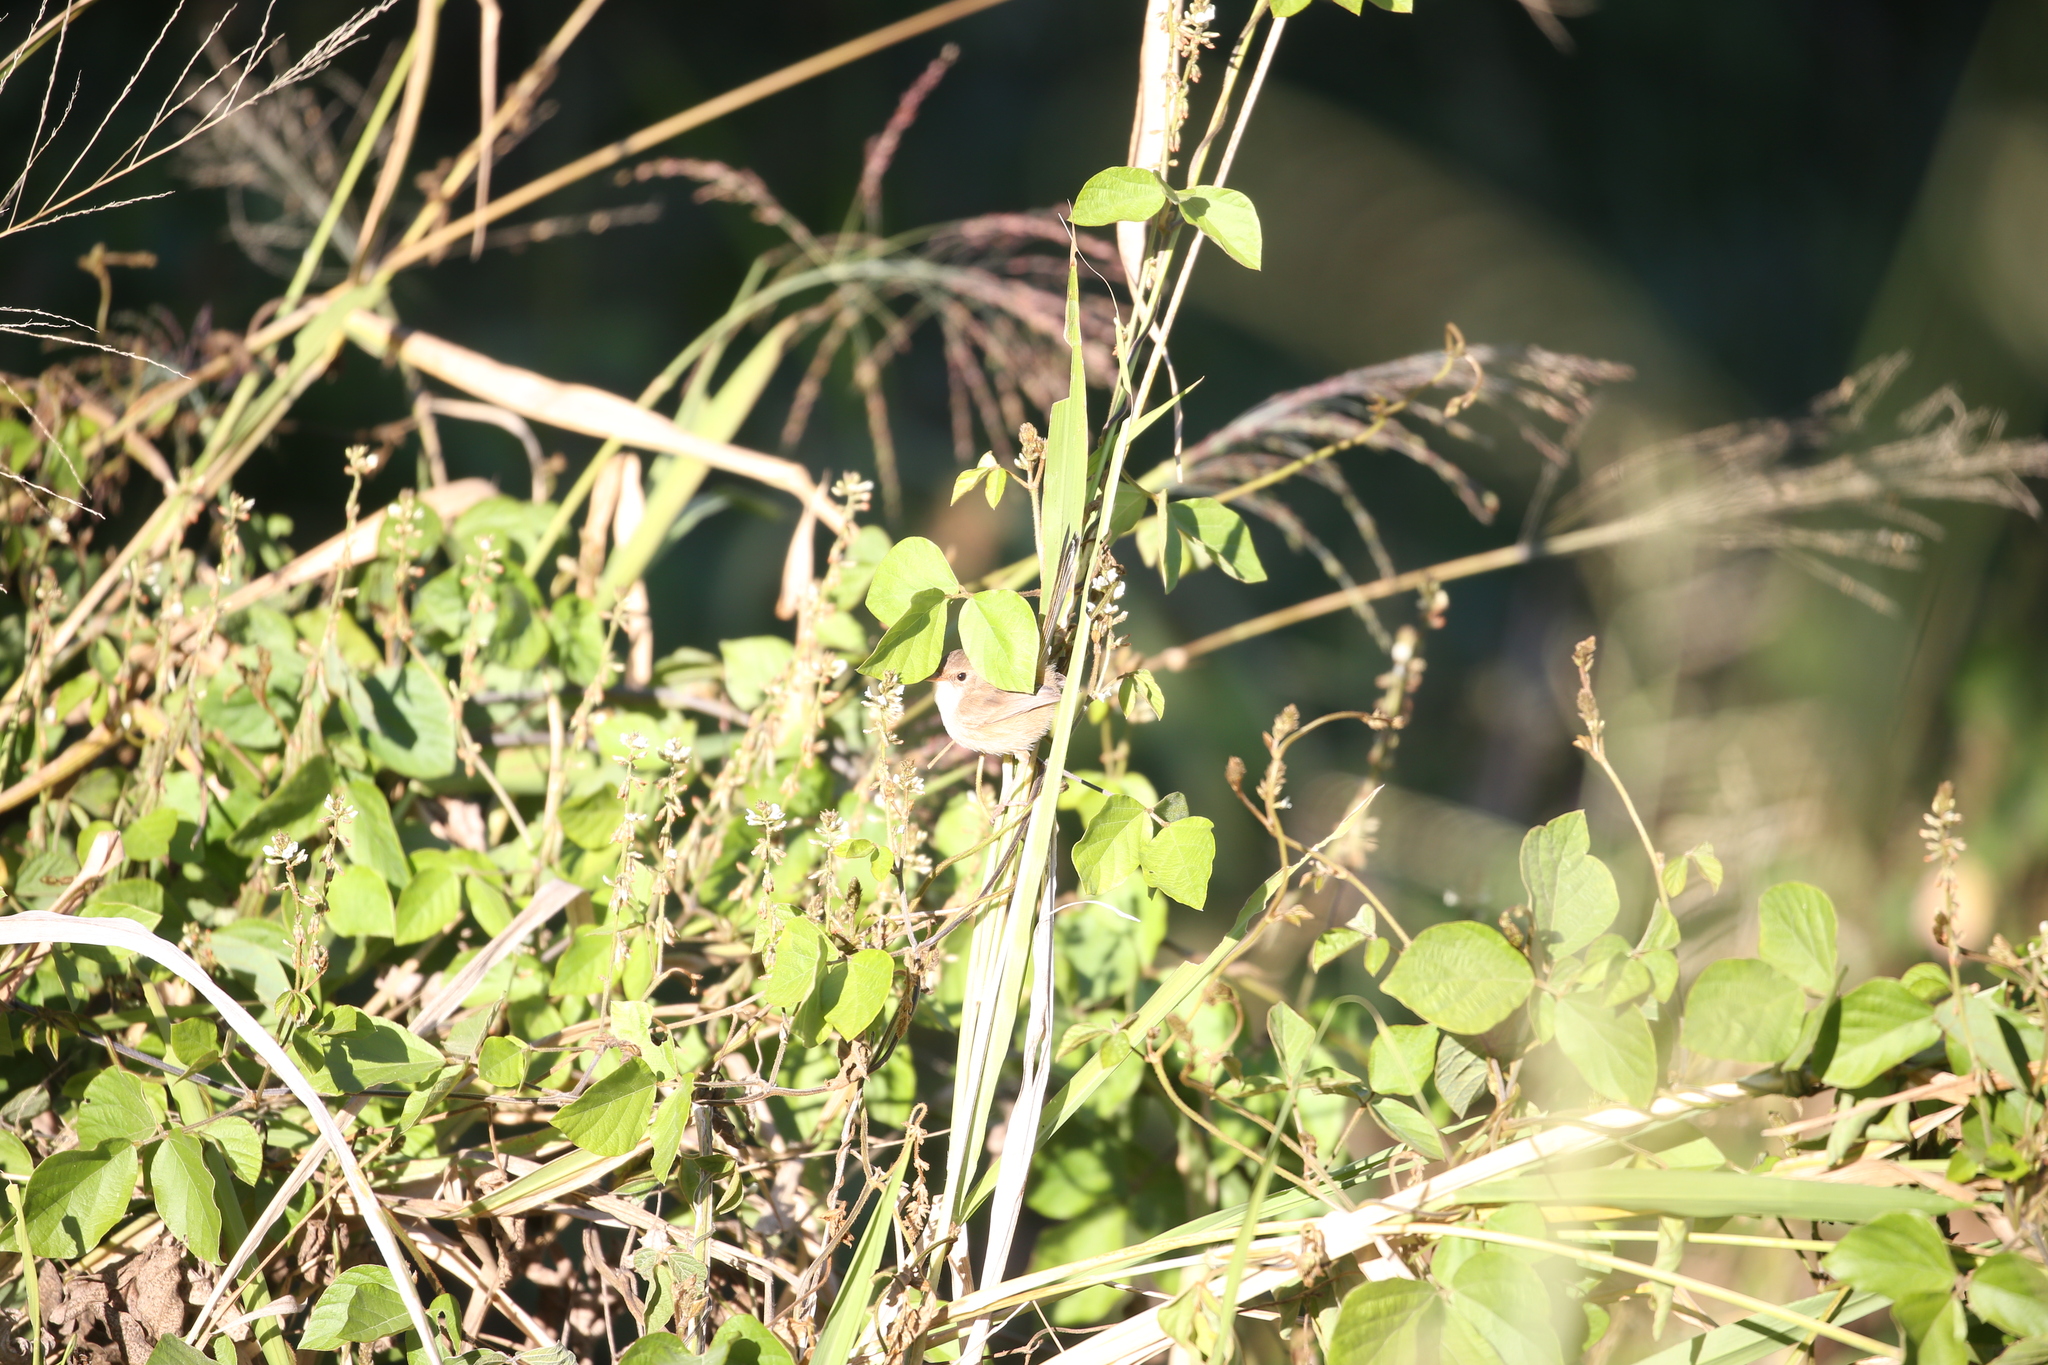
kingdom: Animalia
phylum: Chordata
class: Aves
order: Passeriformes
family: Maluridae
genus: Malurus
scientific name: Malurus melanocephalus
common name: Red-backed fairywren
